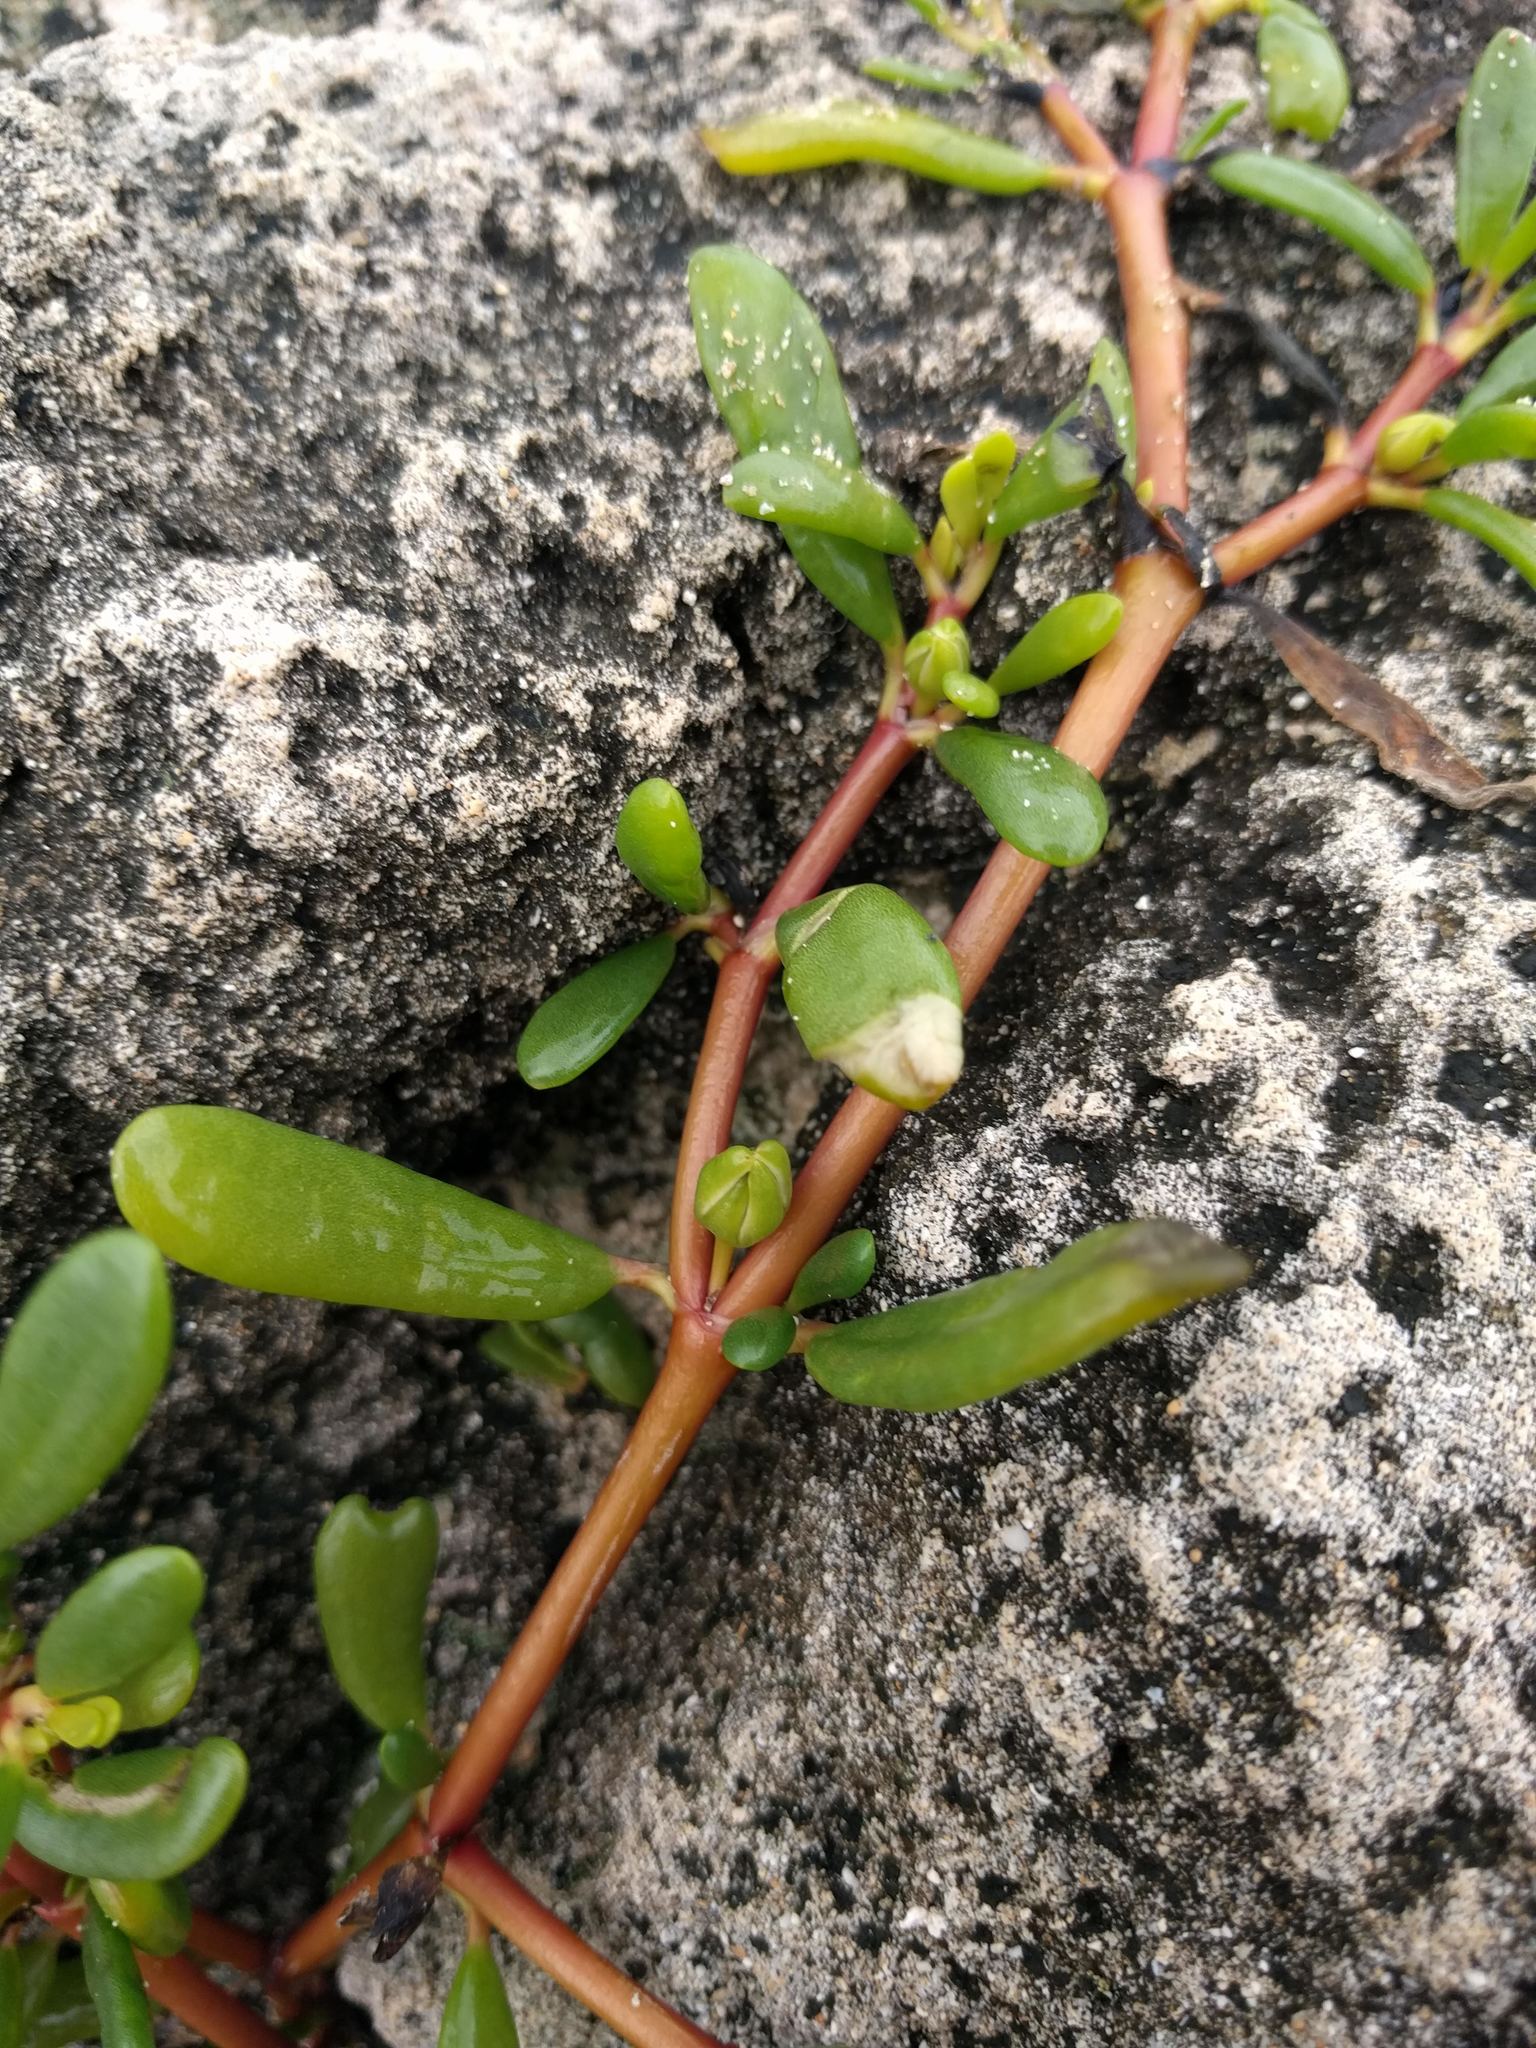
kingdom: Plantae
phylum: Tracheophyta
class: Magnoliopsida
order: Caryophyllales
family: Aizoaceae
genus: Sesuvium
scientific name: Sesuvium portulacastrum
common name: Sea-purslane
